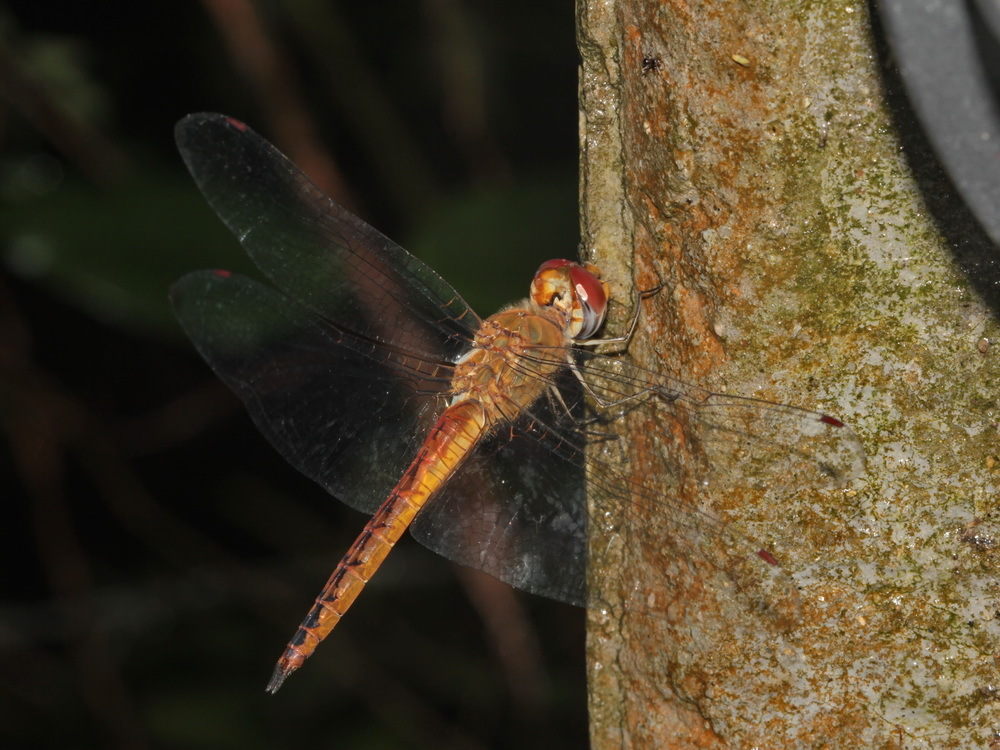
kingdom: Animalia
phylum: Arthropoda
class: Insecta
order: Odonata
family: Libellulidae
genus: Pantala
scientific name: Pantala flavescens
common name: Wandering glider
